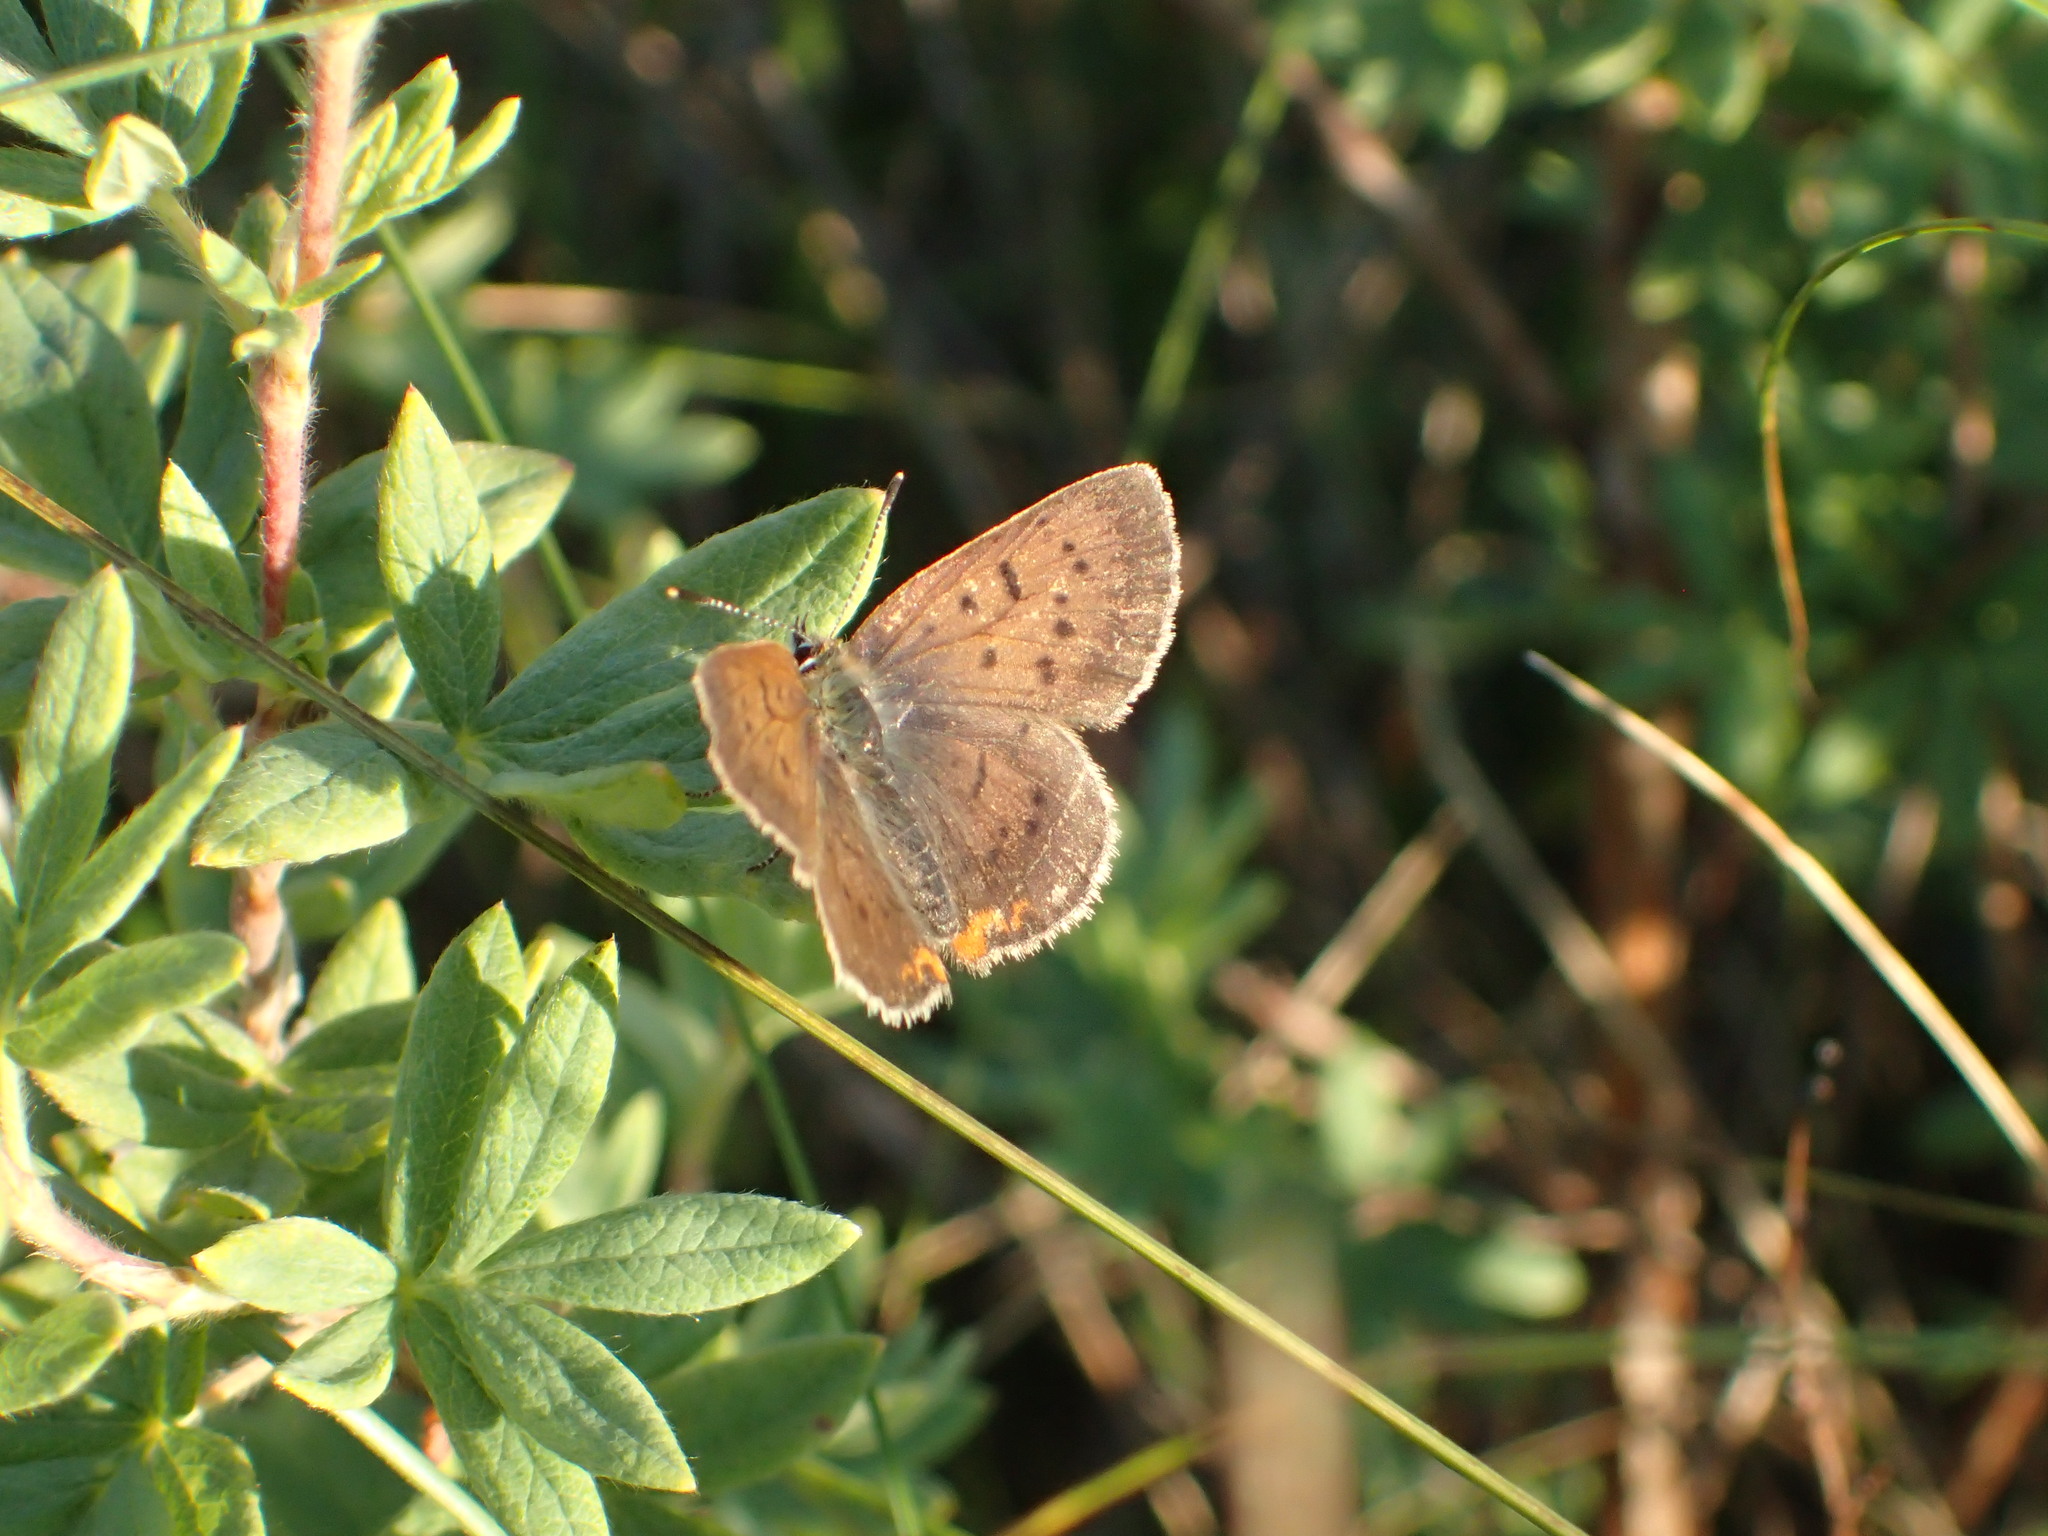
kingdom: Animalia
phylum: Arthropoda
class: Insecta
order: Lepidoptera
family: Lycaenidae
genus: Tharsalea
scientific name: Tharsalea epixanthe
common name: Bog copper
